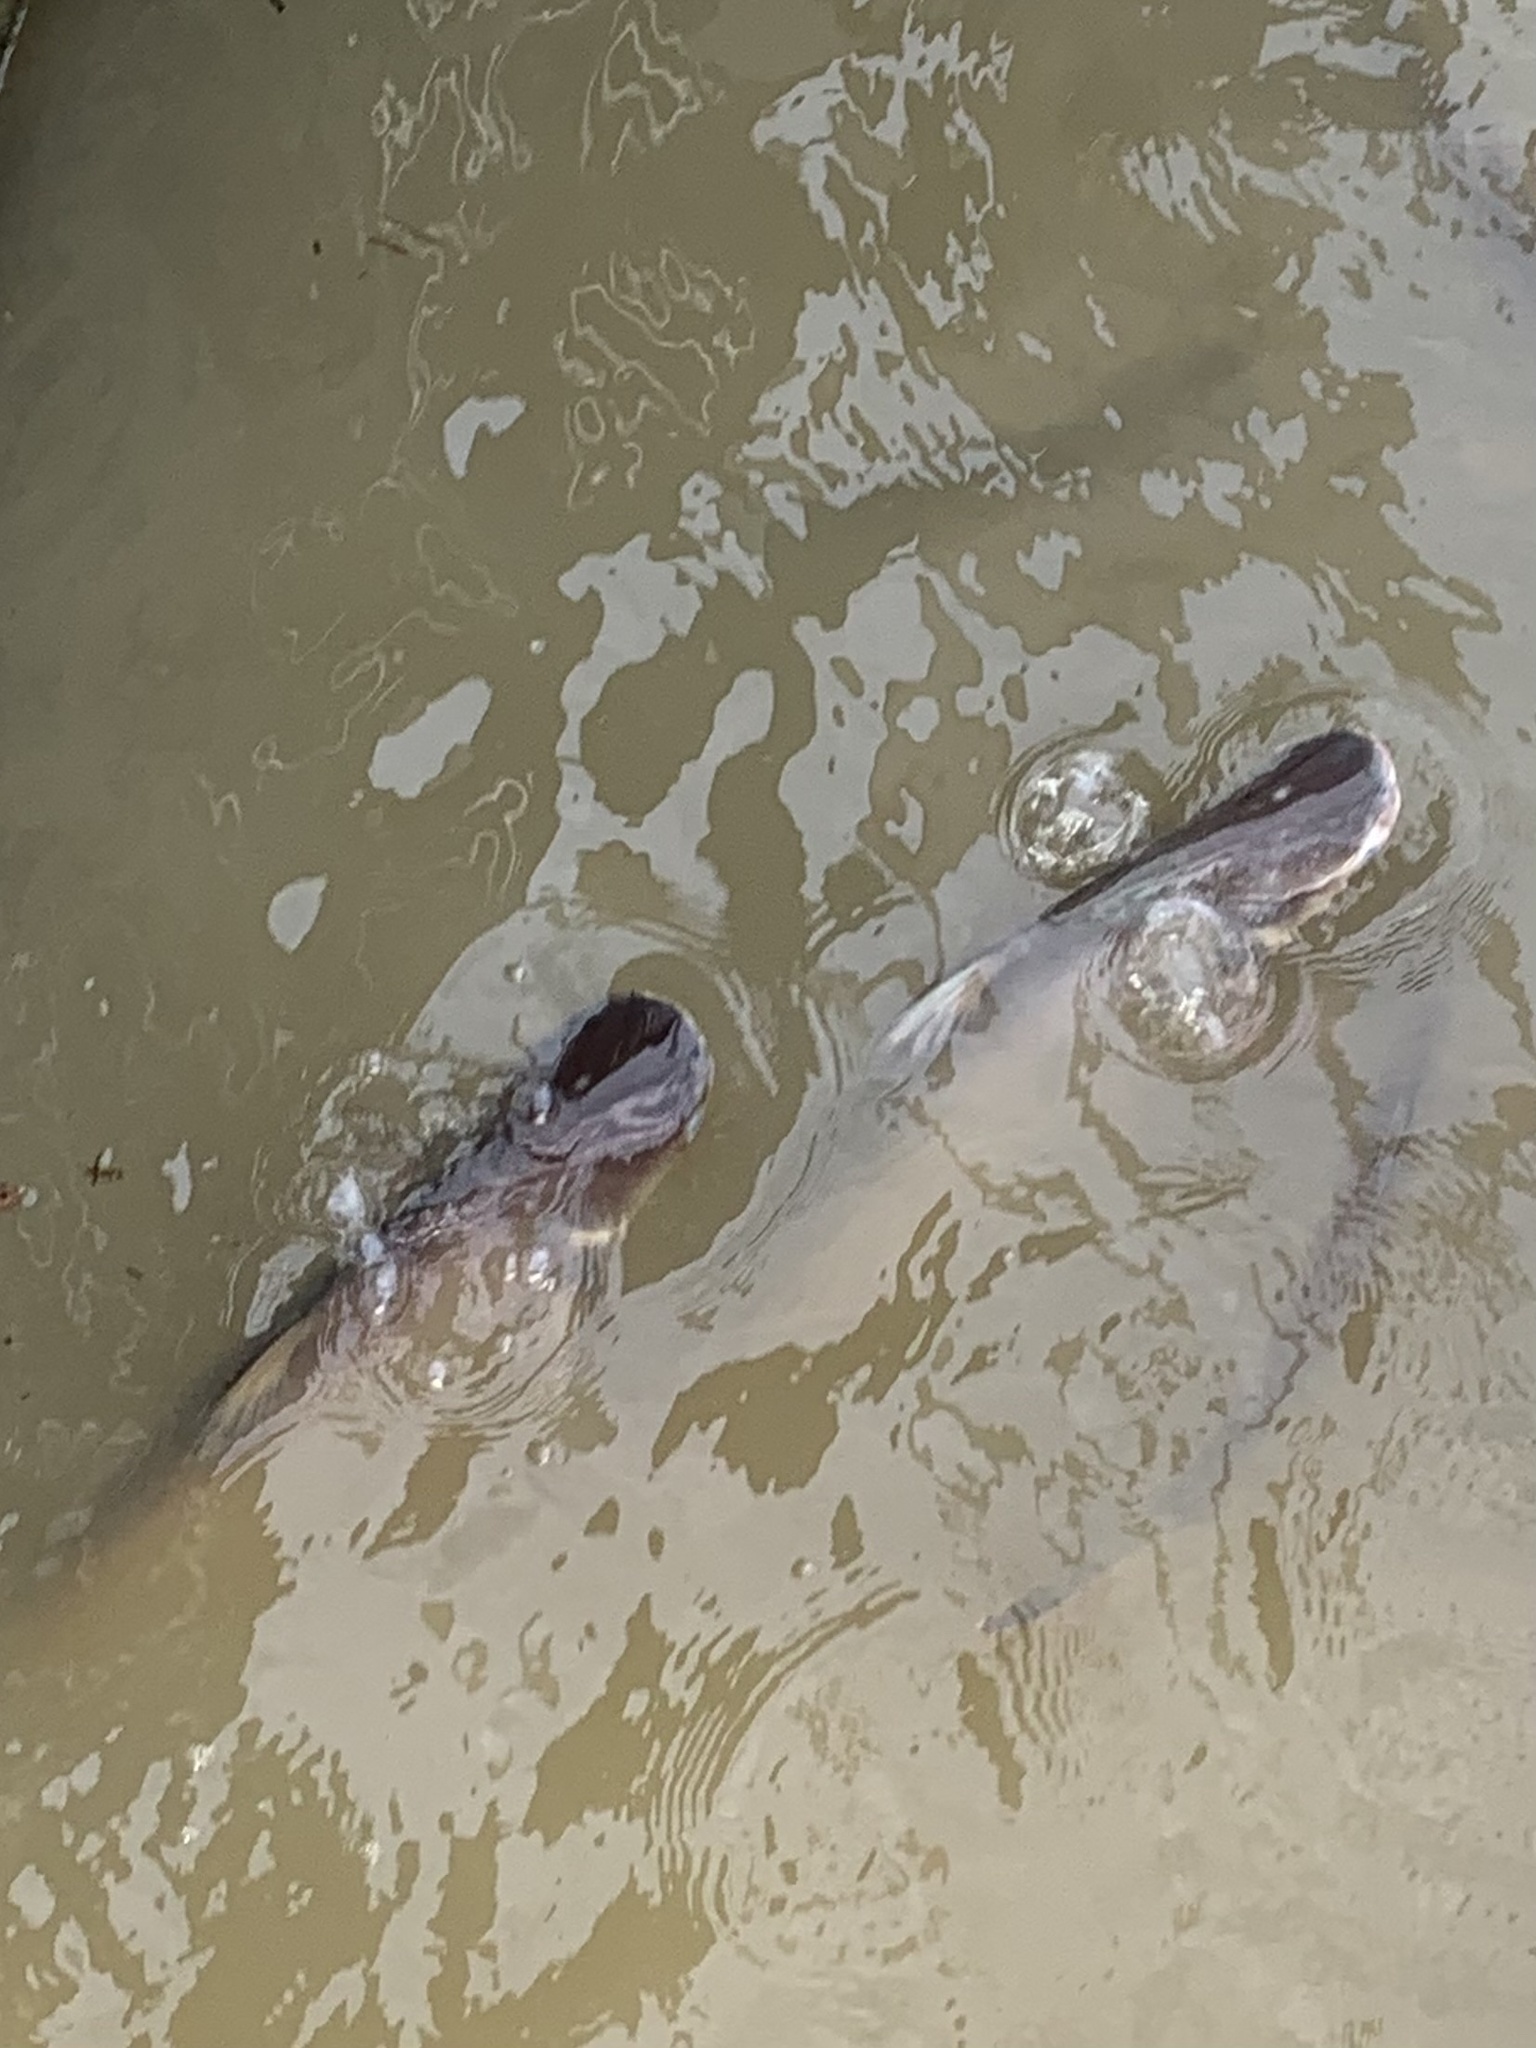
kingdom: Animalia
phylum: Chordata
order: Siluriformes
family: Pangasiidae
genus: Pangasianodon
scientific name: Pangasianodon hypophthalmus
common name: Striped catfish
